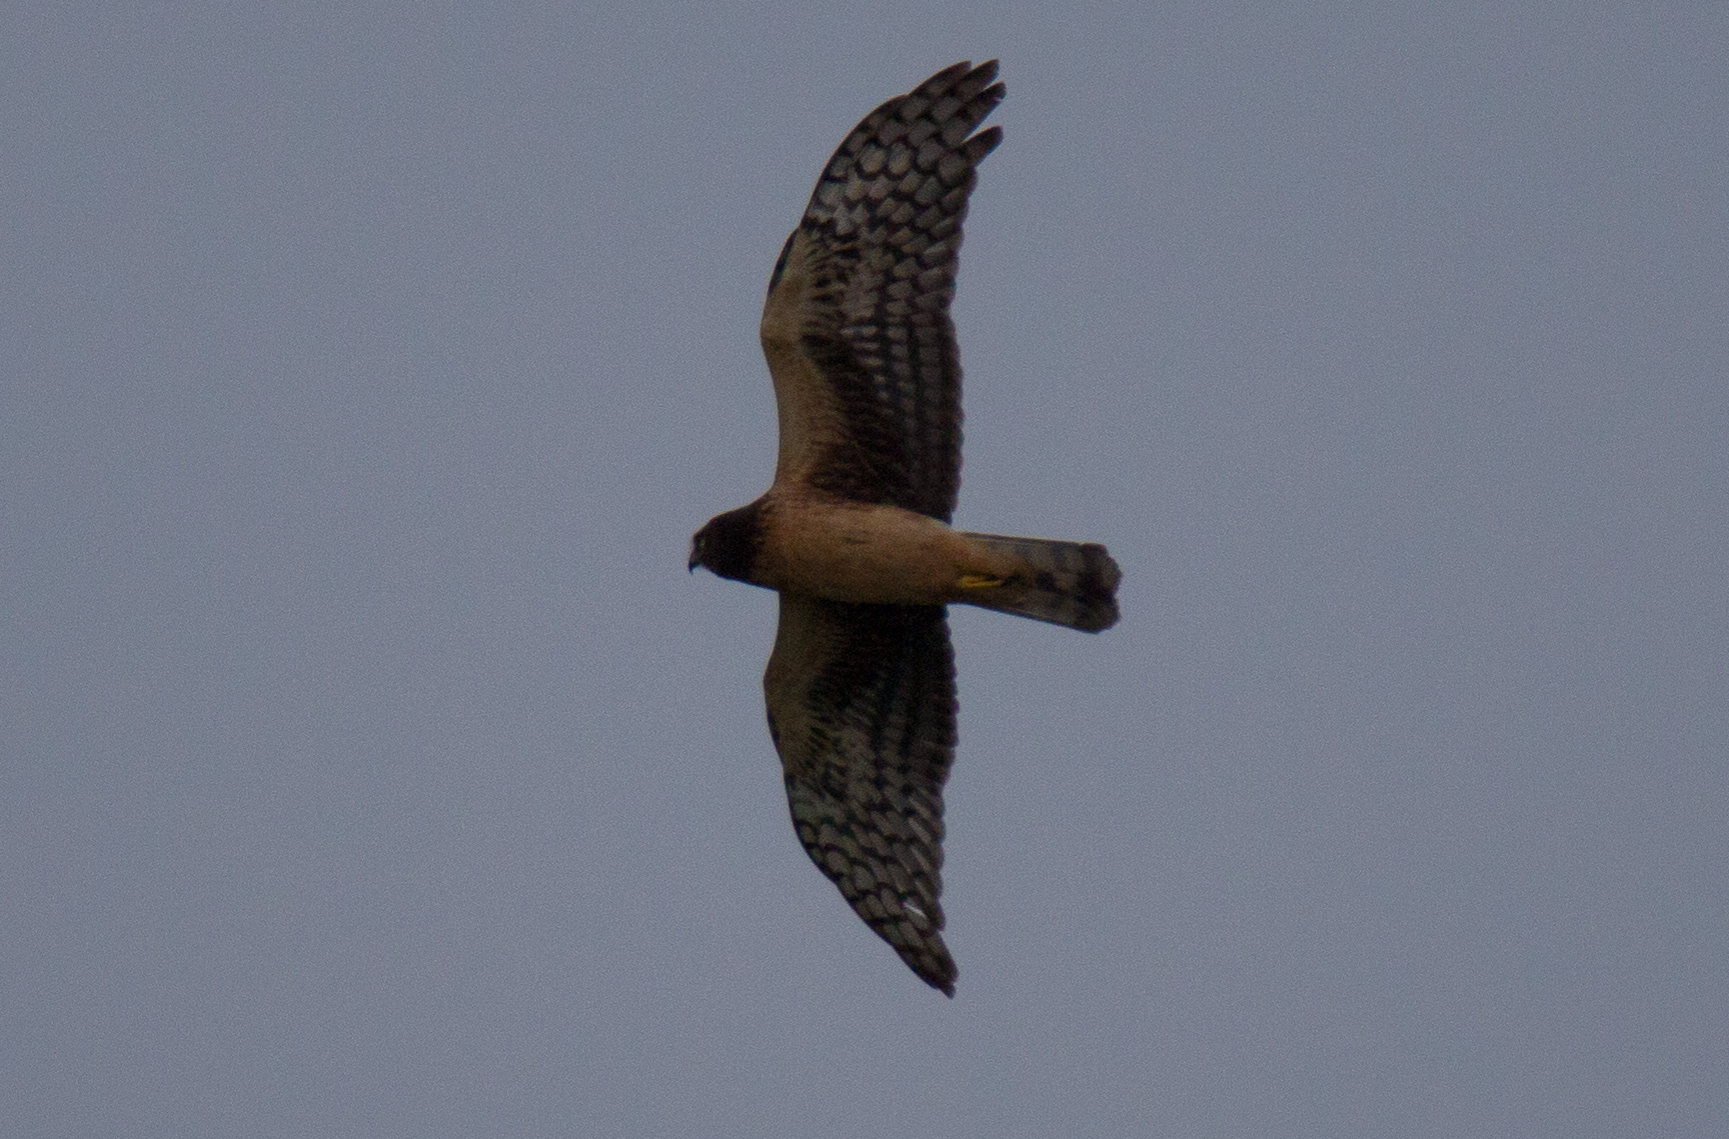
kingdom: Animalia
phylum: Chordata
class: Aves
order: Accipitriformes
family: Accipitridae
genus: Circus
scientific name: Circus cyaneus
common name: Hen harrier
